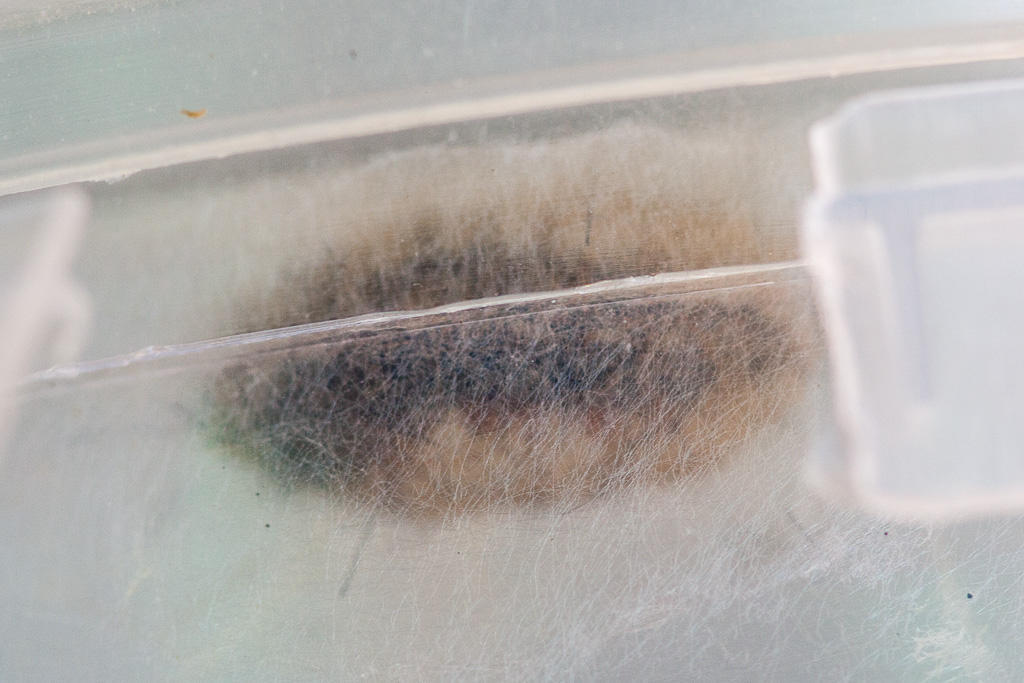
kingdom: Animalia
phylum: Arthropoda
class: Insecta
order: Lepidoptera
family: Erebidae
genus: Bracharoa
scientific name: Bracharoa quadripunctata
